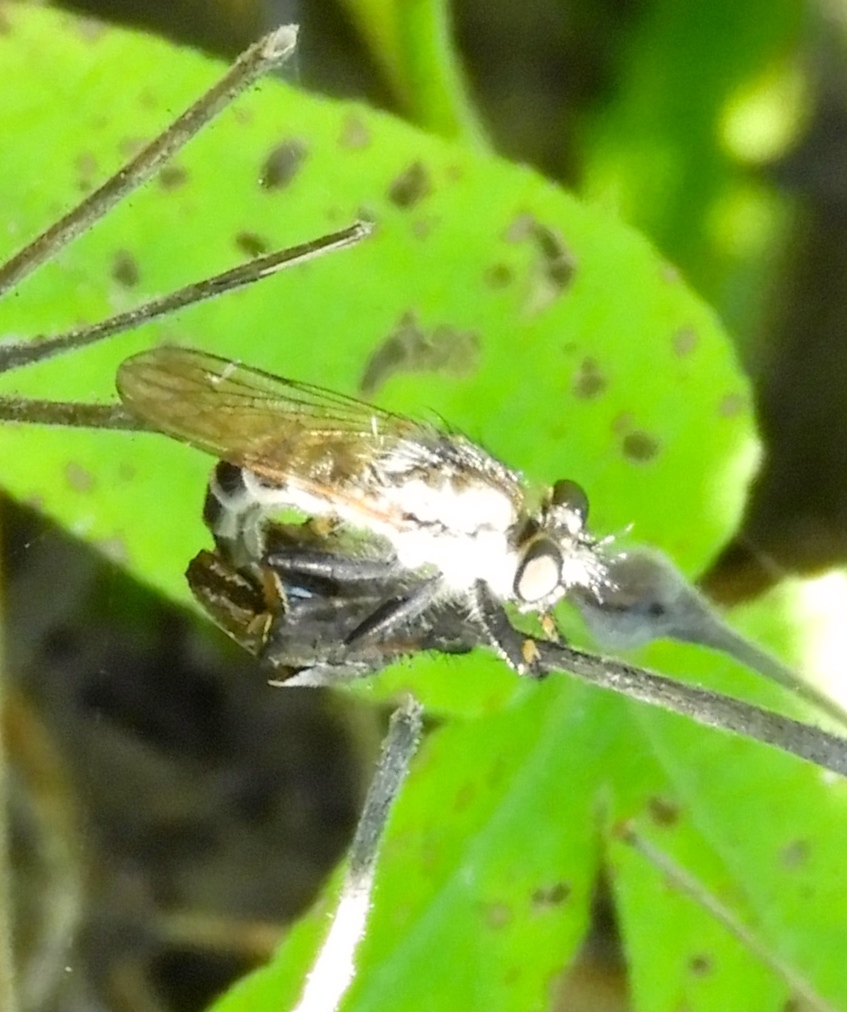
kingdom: Animalia
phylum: Arthropoda
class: Insecta
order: Diptera
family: Asilidae
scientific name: Asilidae
